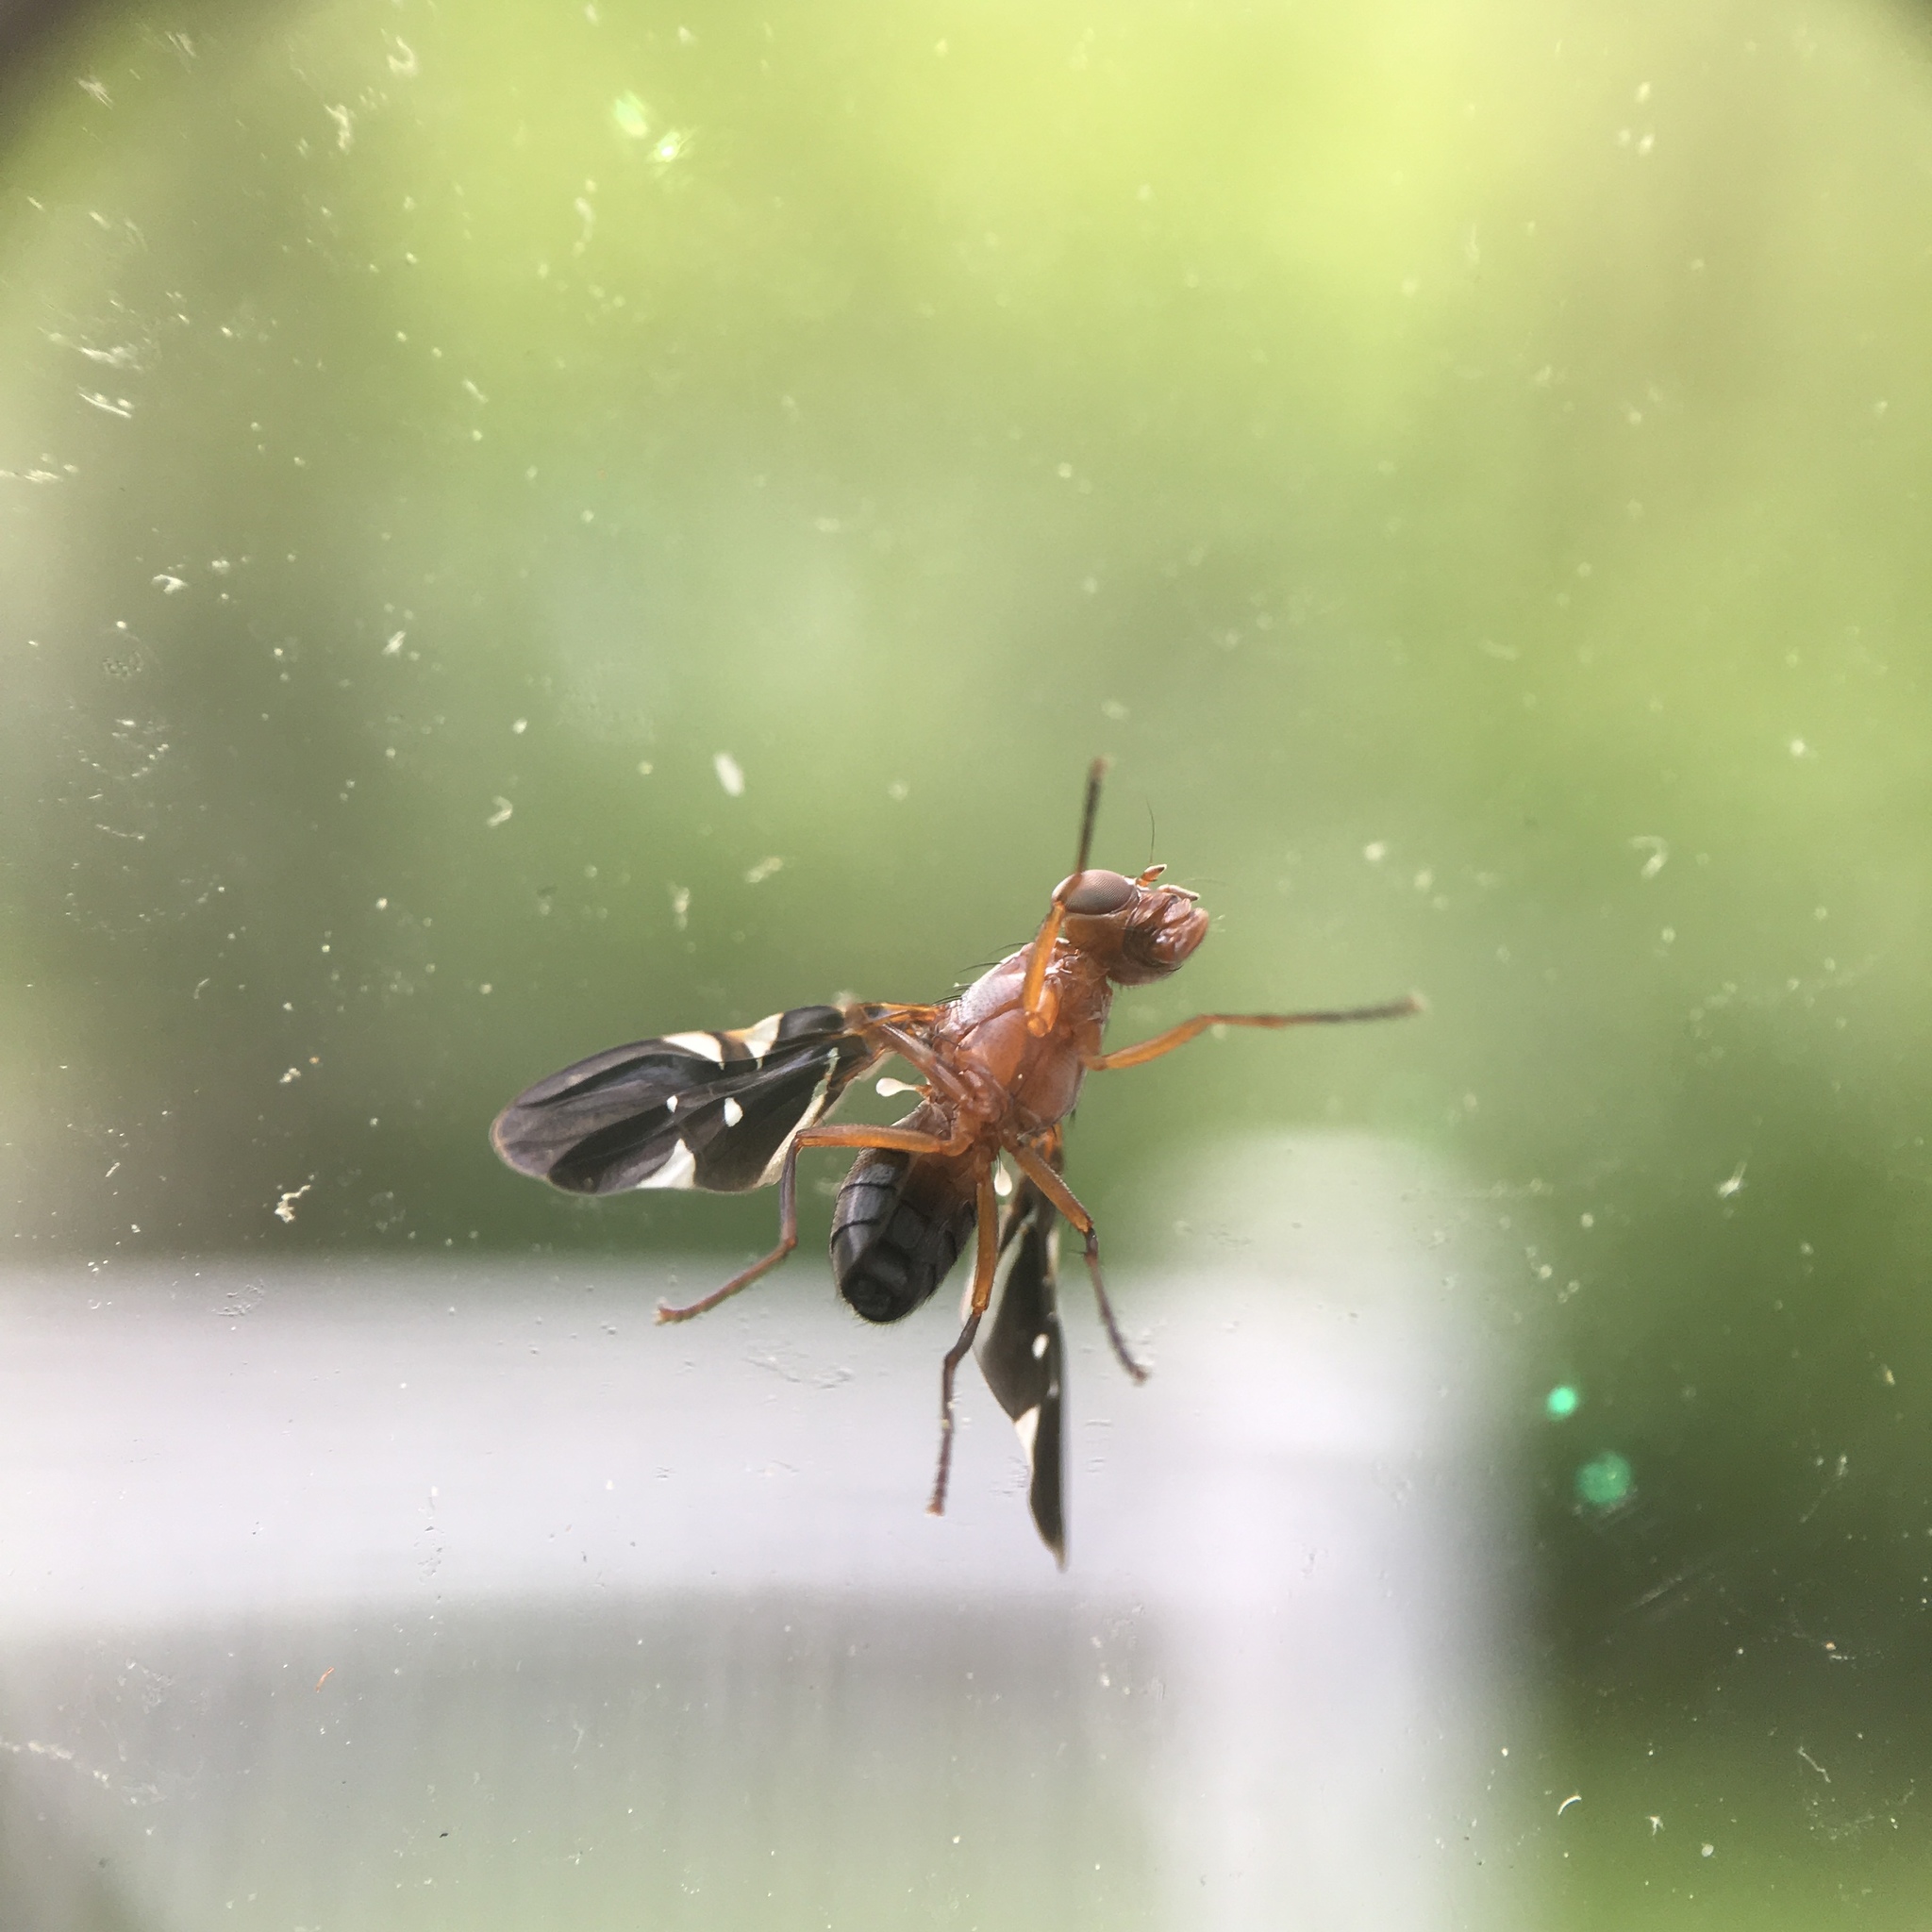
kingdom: Animalia
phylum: Arthropoda
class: Insecta
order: Diptera
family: Ulidiidae
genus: Delphinia
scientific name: Delphinia picta
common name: Common picture-winged fly
